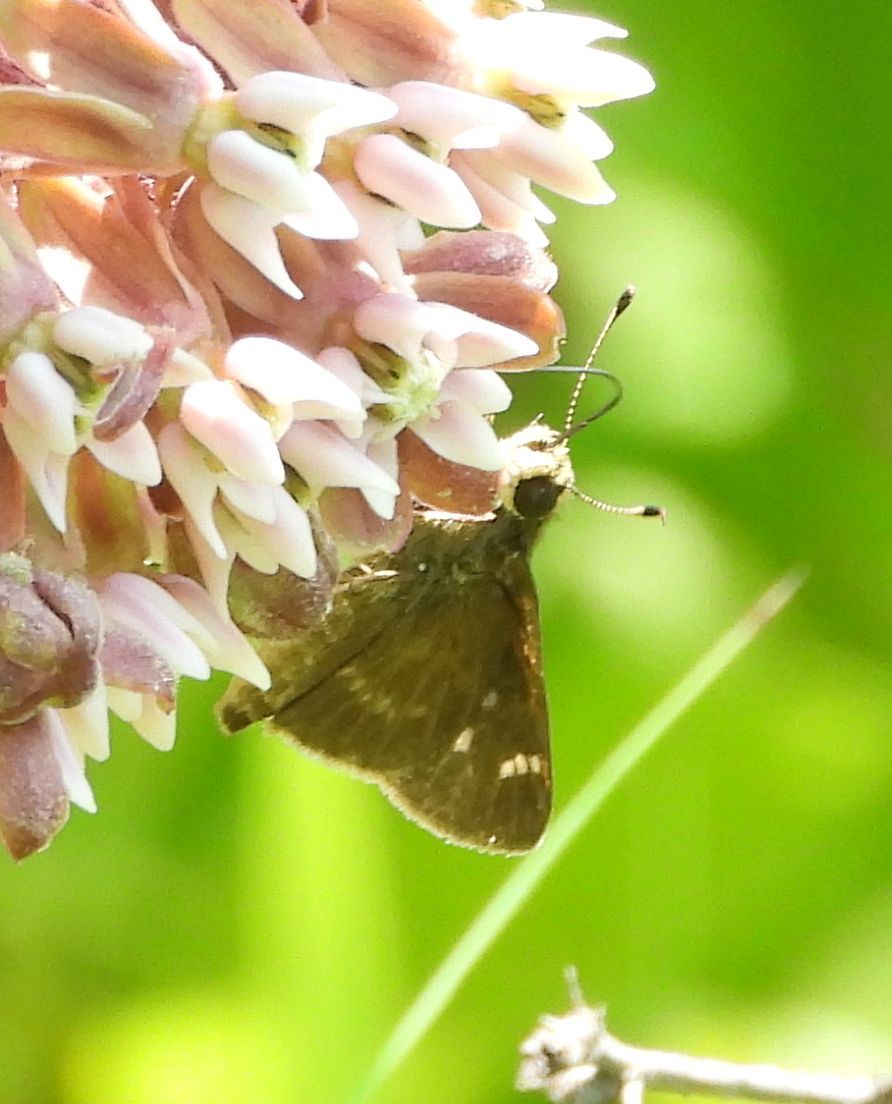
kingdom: Animalia
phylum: Arthropoda
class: Insecta
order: Lepidoptera
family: Hesperiidae
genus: Vernia
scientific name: Vernia verna
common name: Little glassywing
